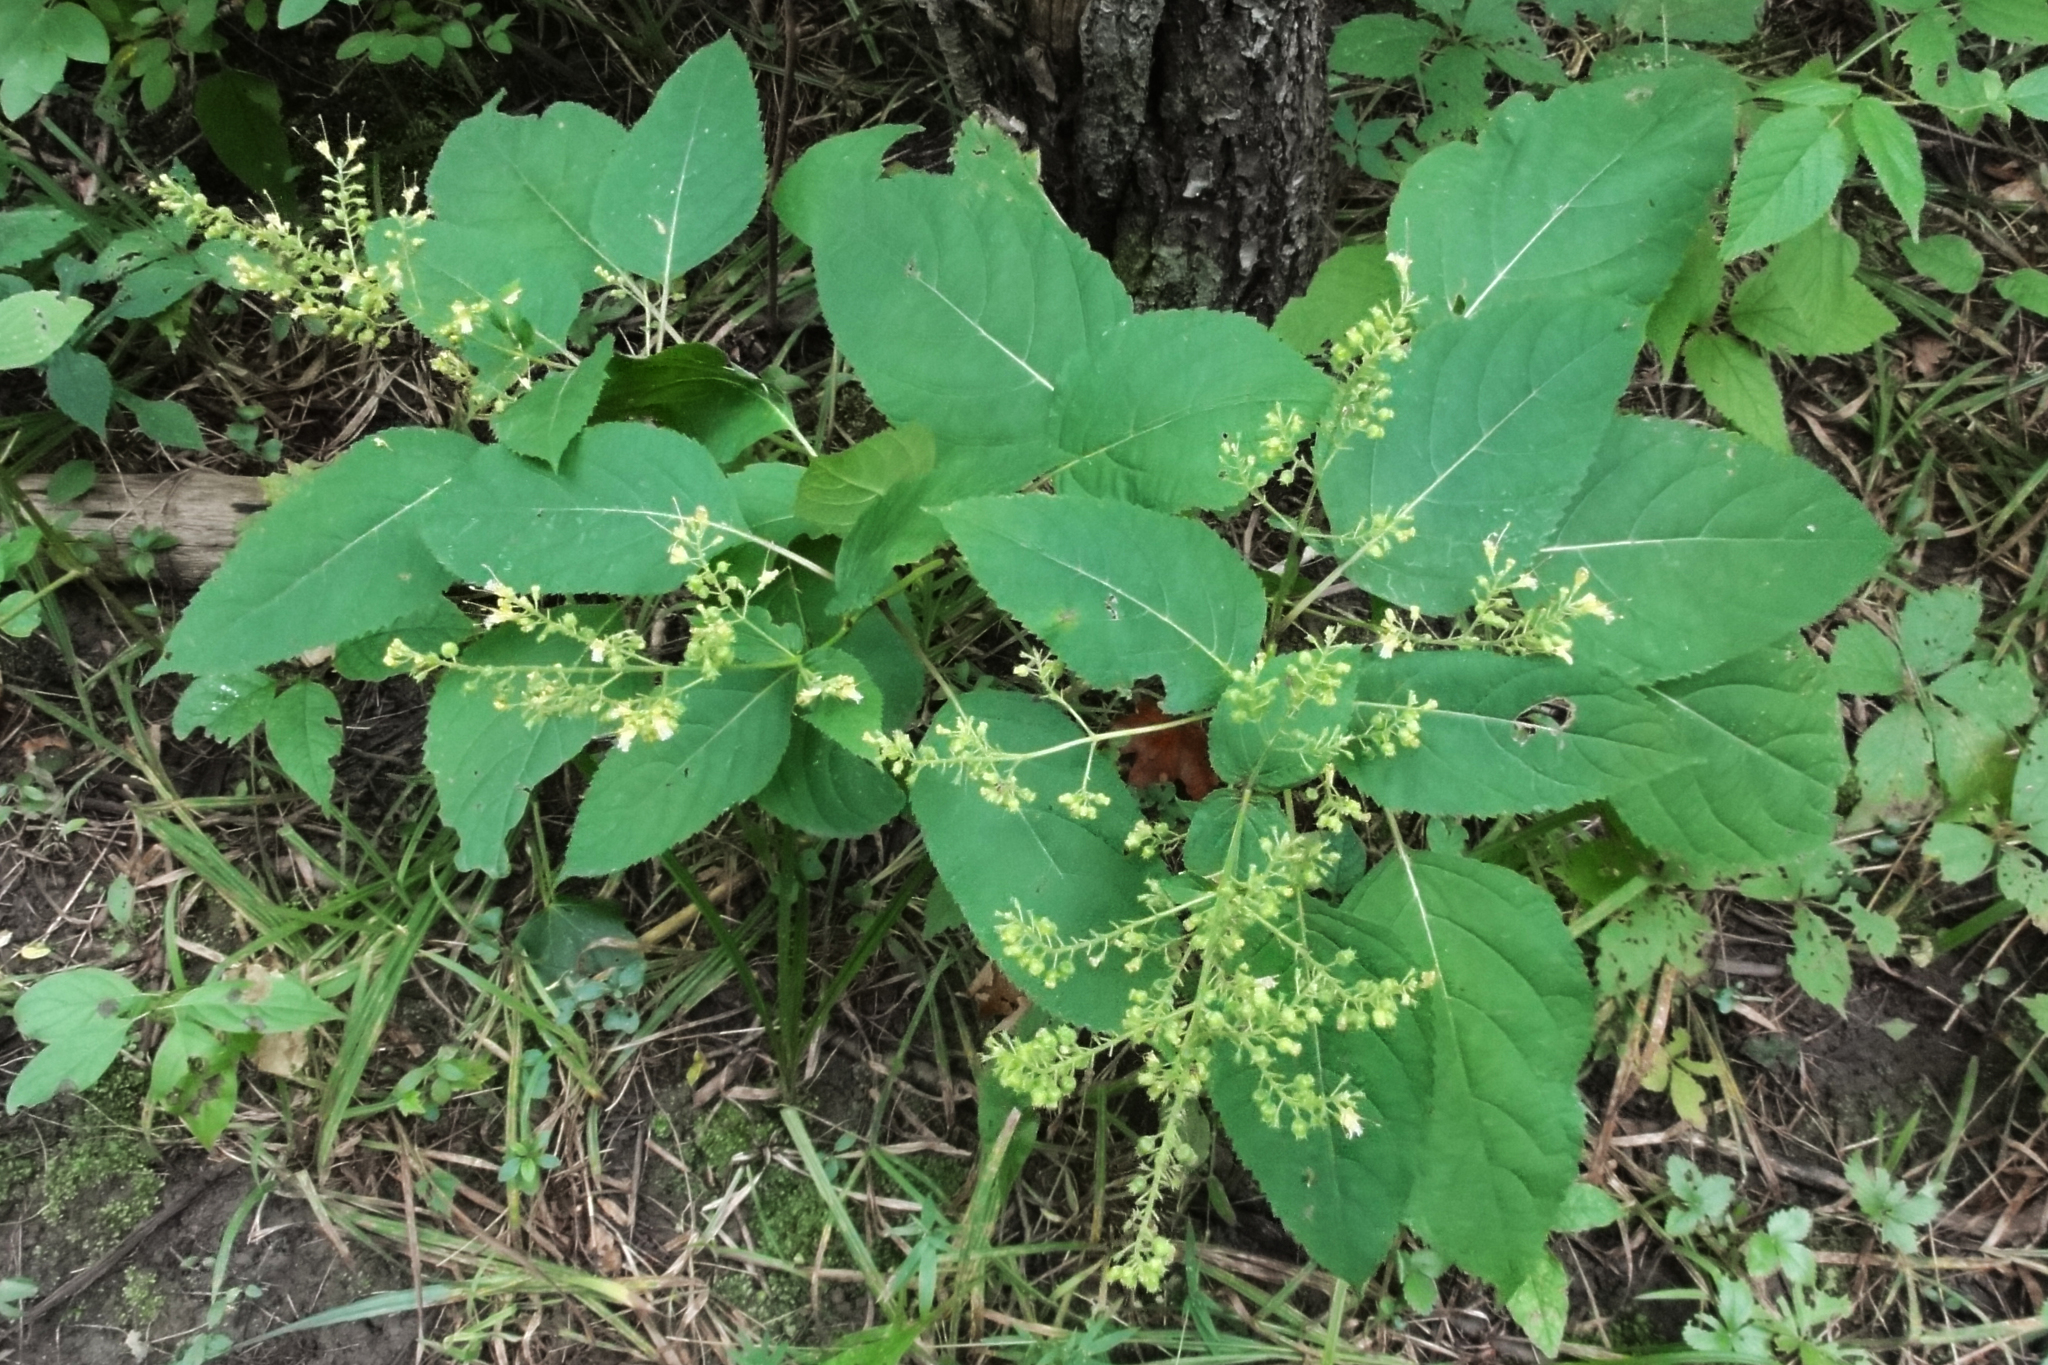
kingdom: Plantae
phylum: Tracheophyta
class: Magnoliopsida
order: Lamiales
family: Lamiaceae
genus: Collinsonia
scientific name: Collinsonia canadensis
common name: Northern horsebalm
